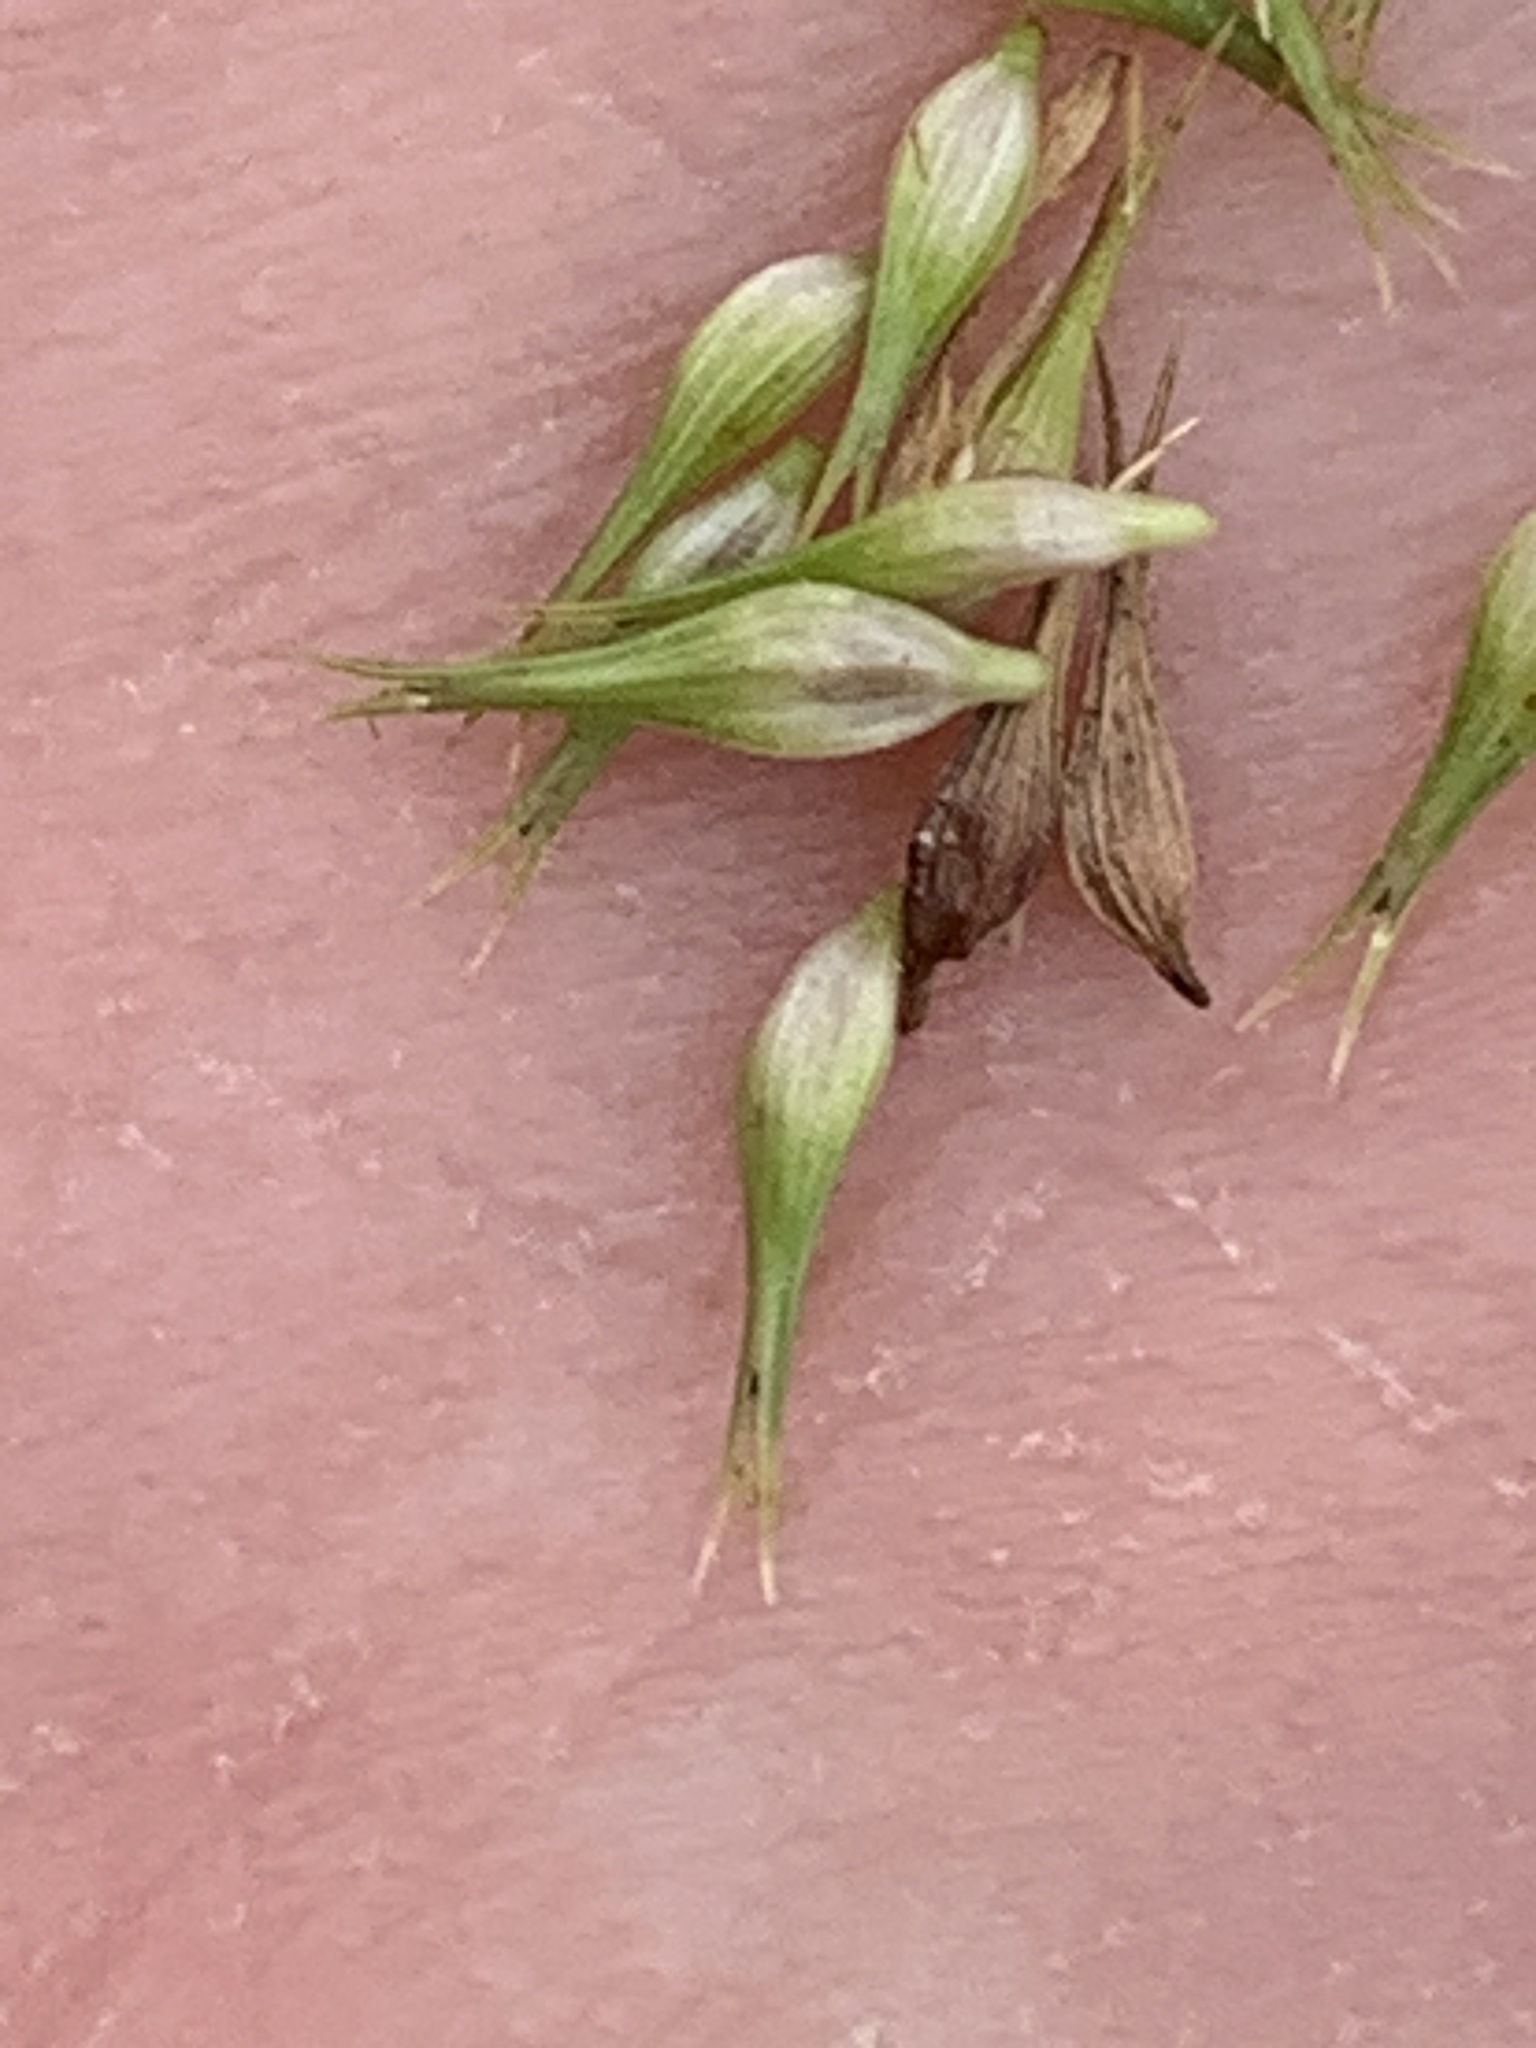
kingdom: Plantae
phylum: Tracheophyta
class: Liliopsida
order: Poales
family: Cyperaceae
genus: Carex
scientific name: Carex comosa
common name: Bristly sedge
